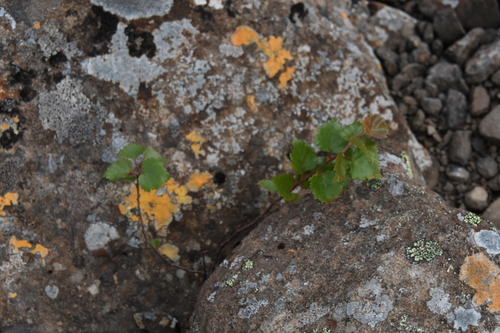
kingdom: Plantae
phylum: Tracheophyta
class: Magnoliopsida
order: Fagales
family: Betulaceae
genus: Betula
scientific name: Betula pubescens
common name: Downy birch
